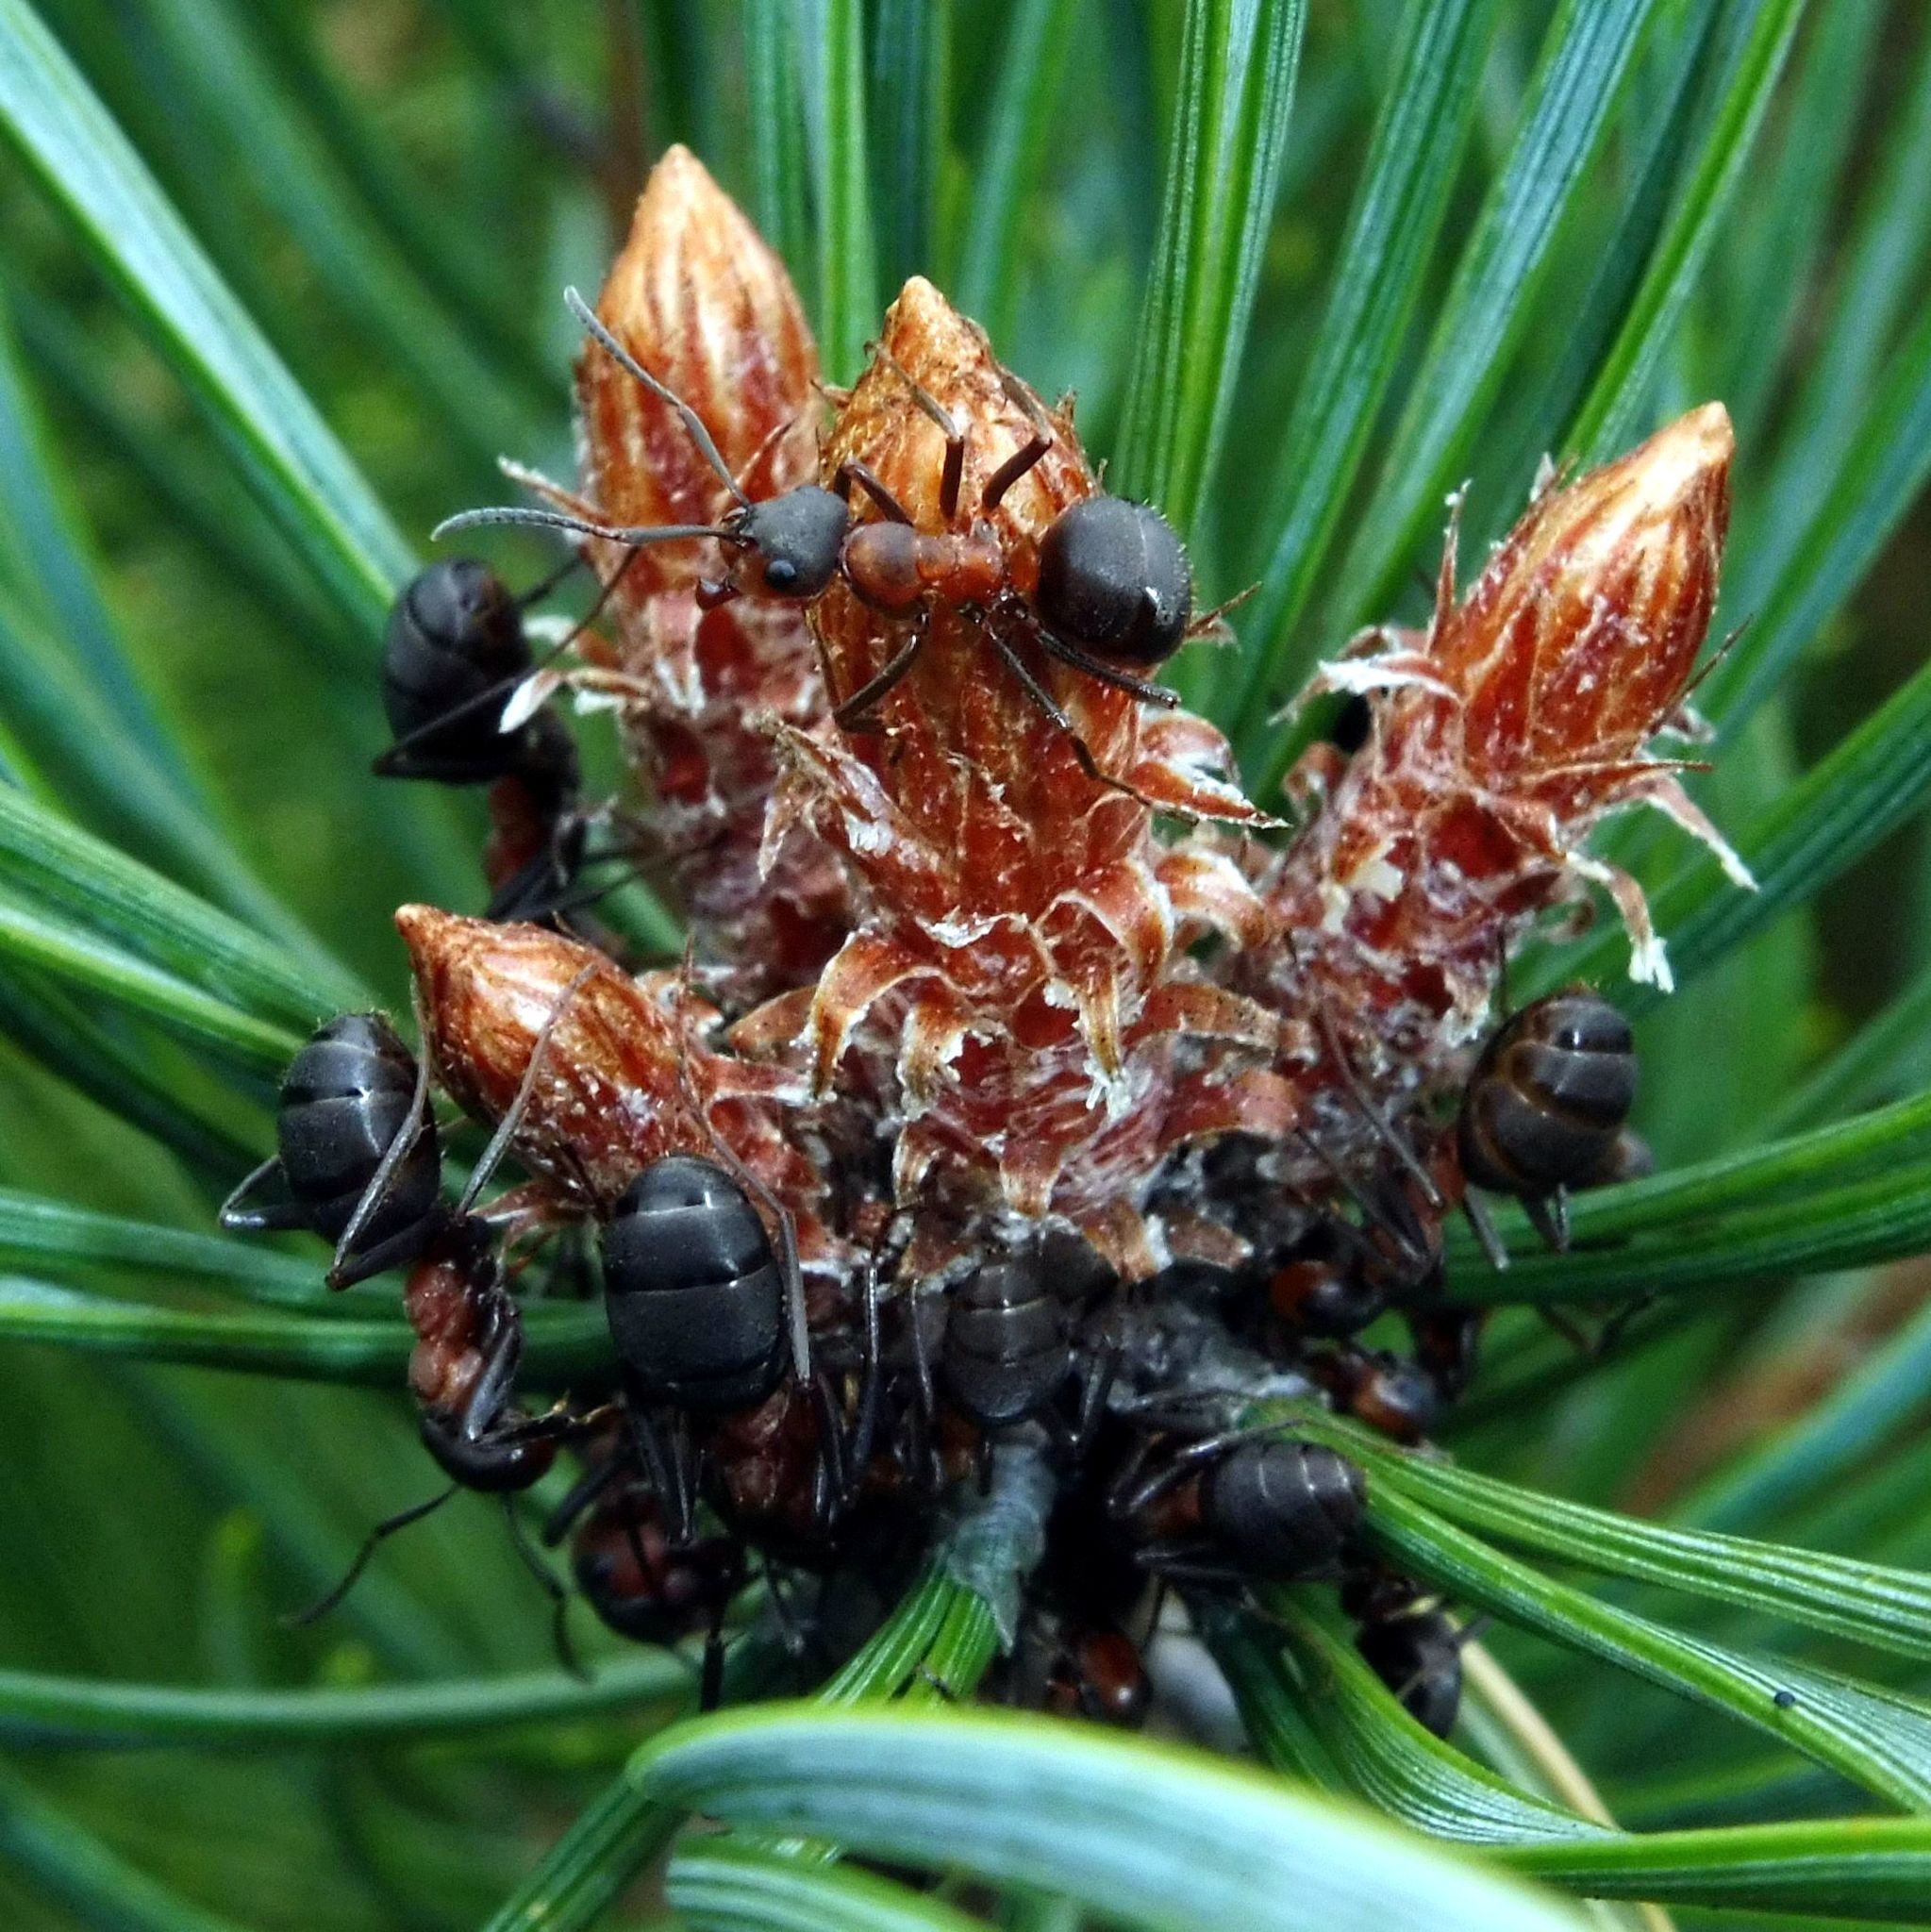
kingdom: Animalia
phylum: Arthropoda
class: Insecta
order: Hymenoptera
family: Formicidae
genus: Formica
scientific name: Formica
